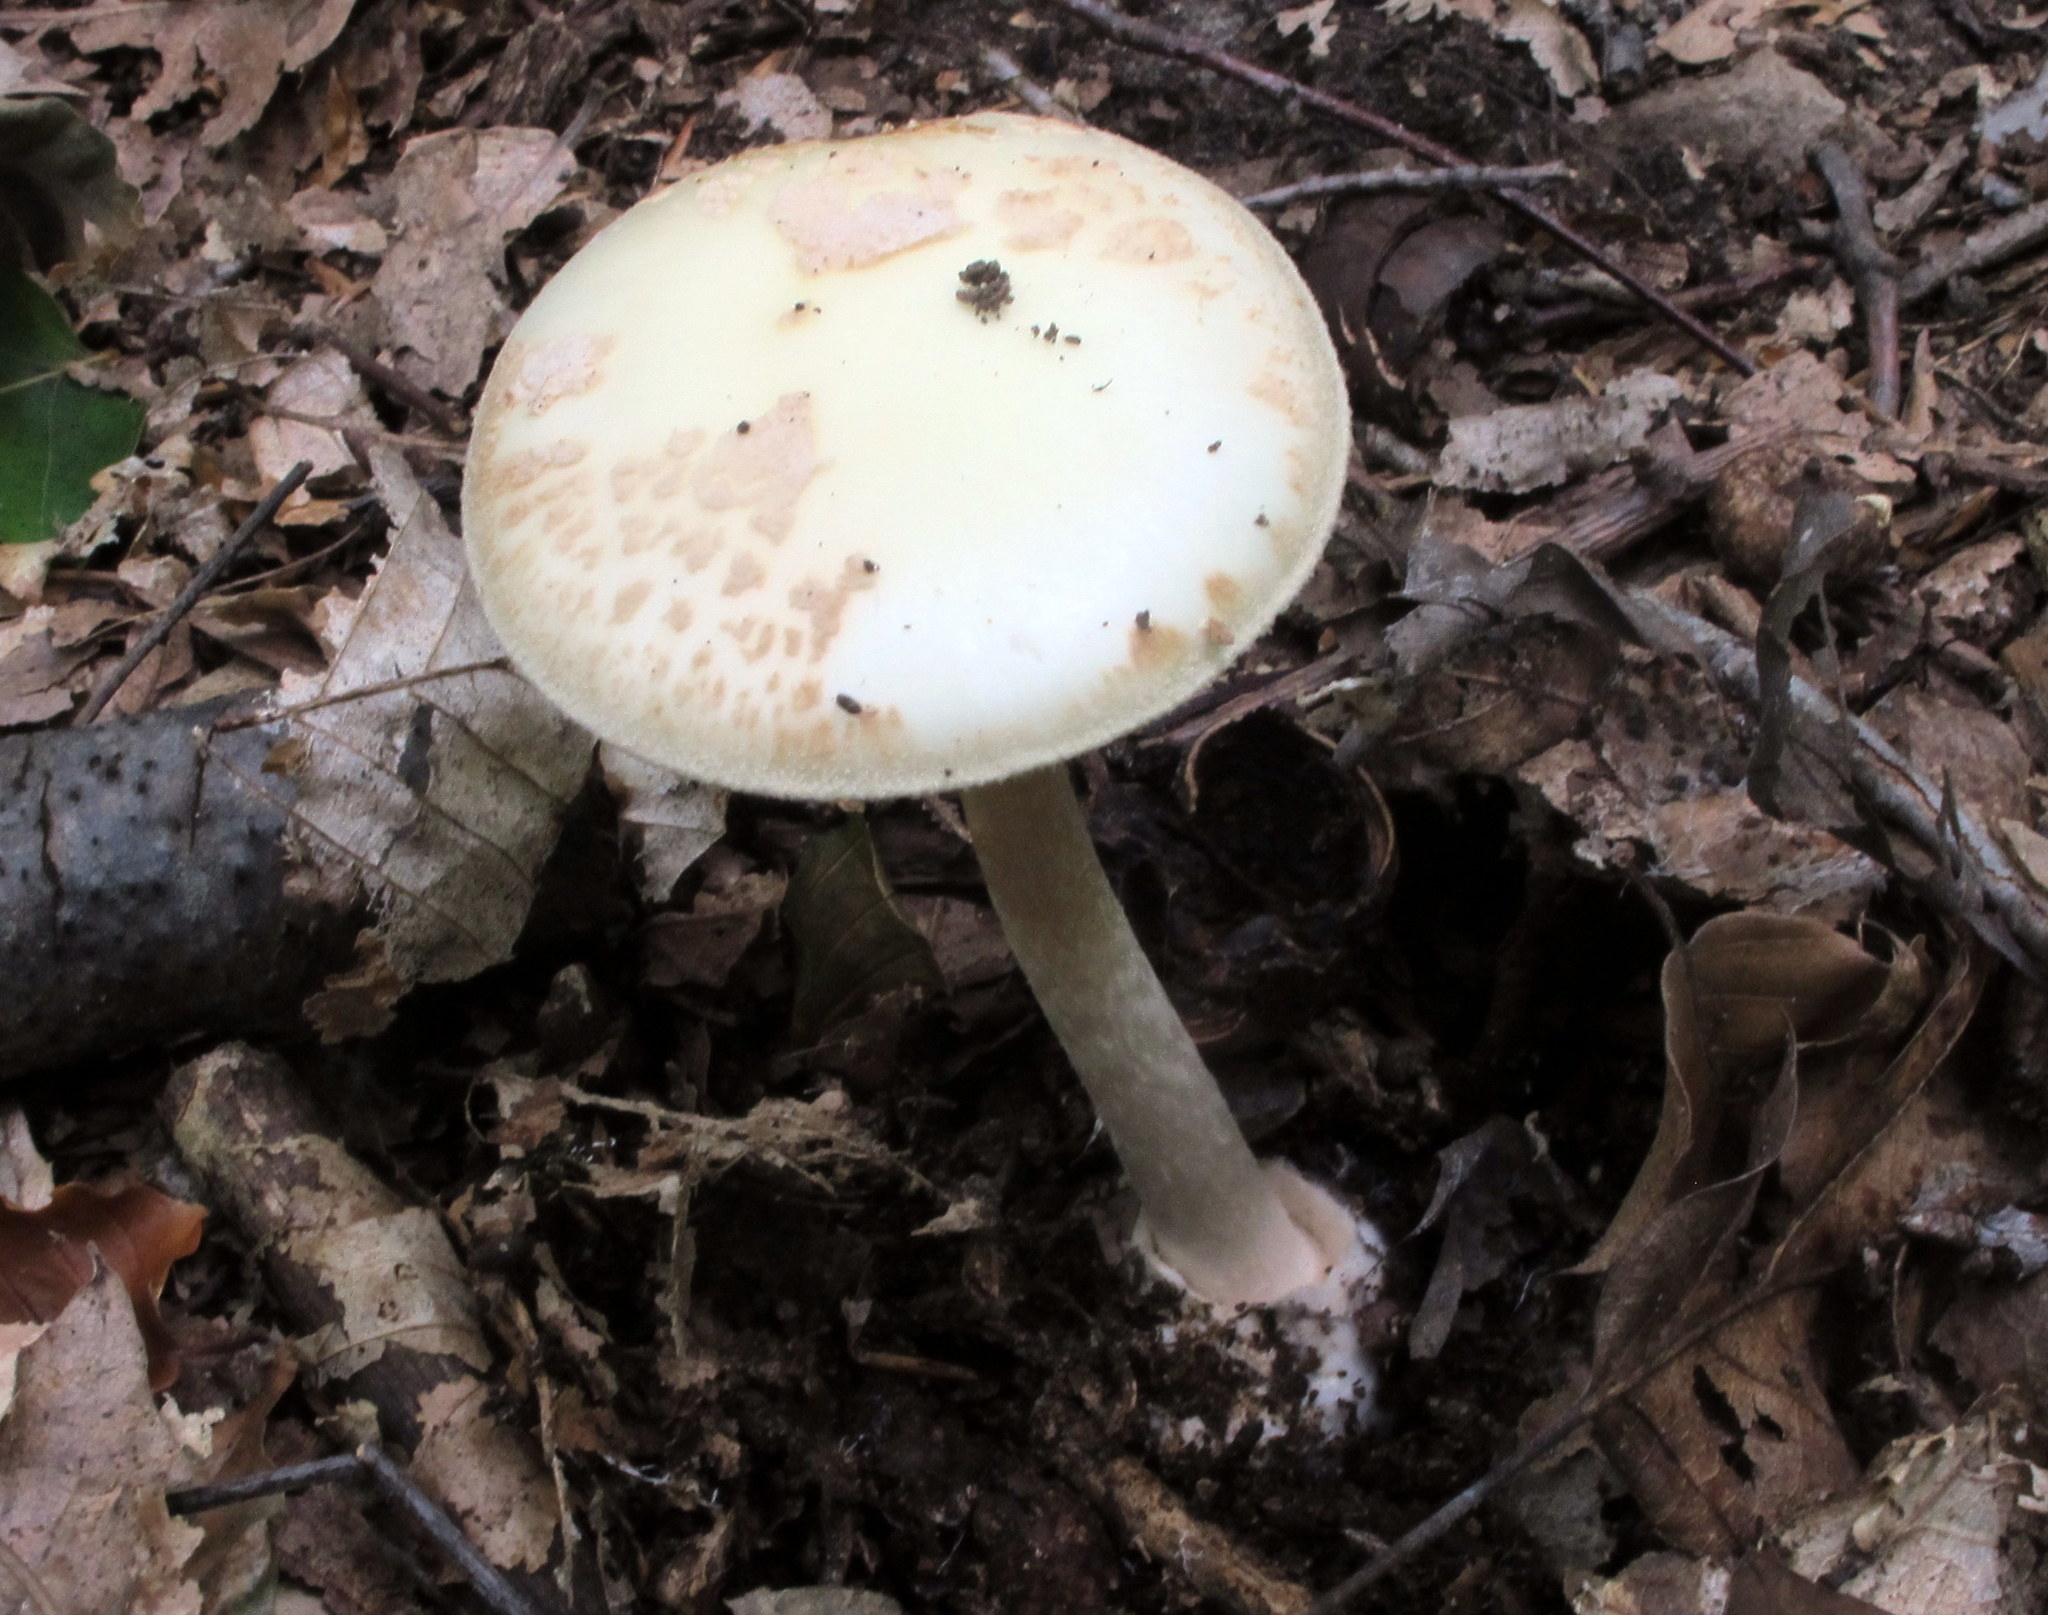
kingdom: Fungi
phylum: Basidiomycota
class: Agaricomycetes
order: Agaricales
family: Amanitaceae
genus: Amanita
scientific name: Amanita citrina
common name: False death-cap
